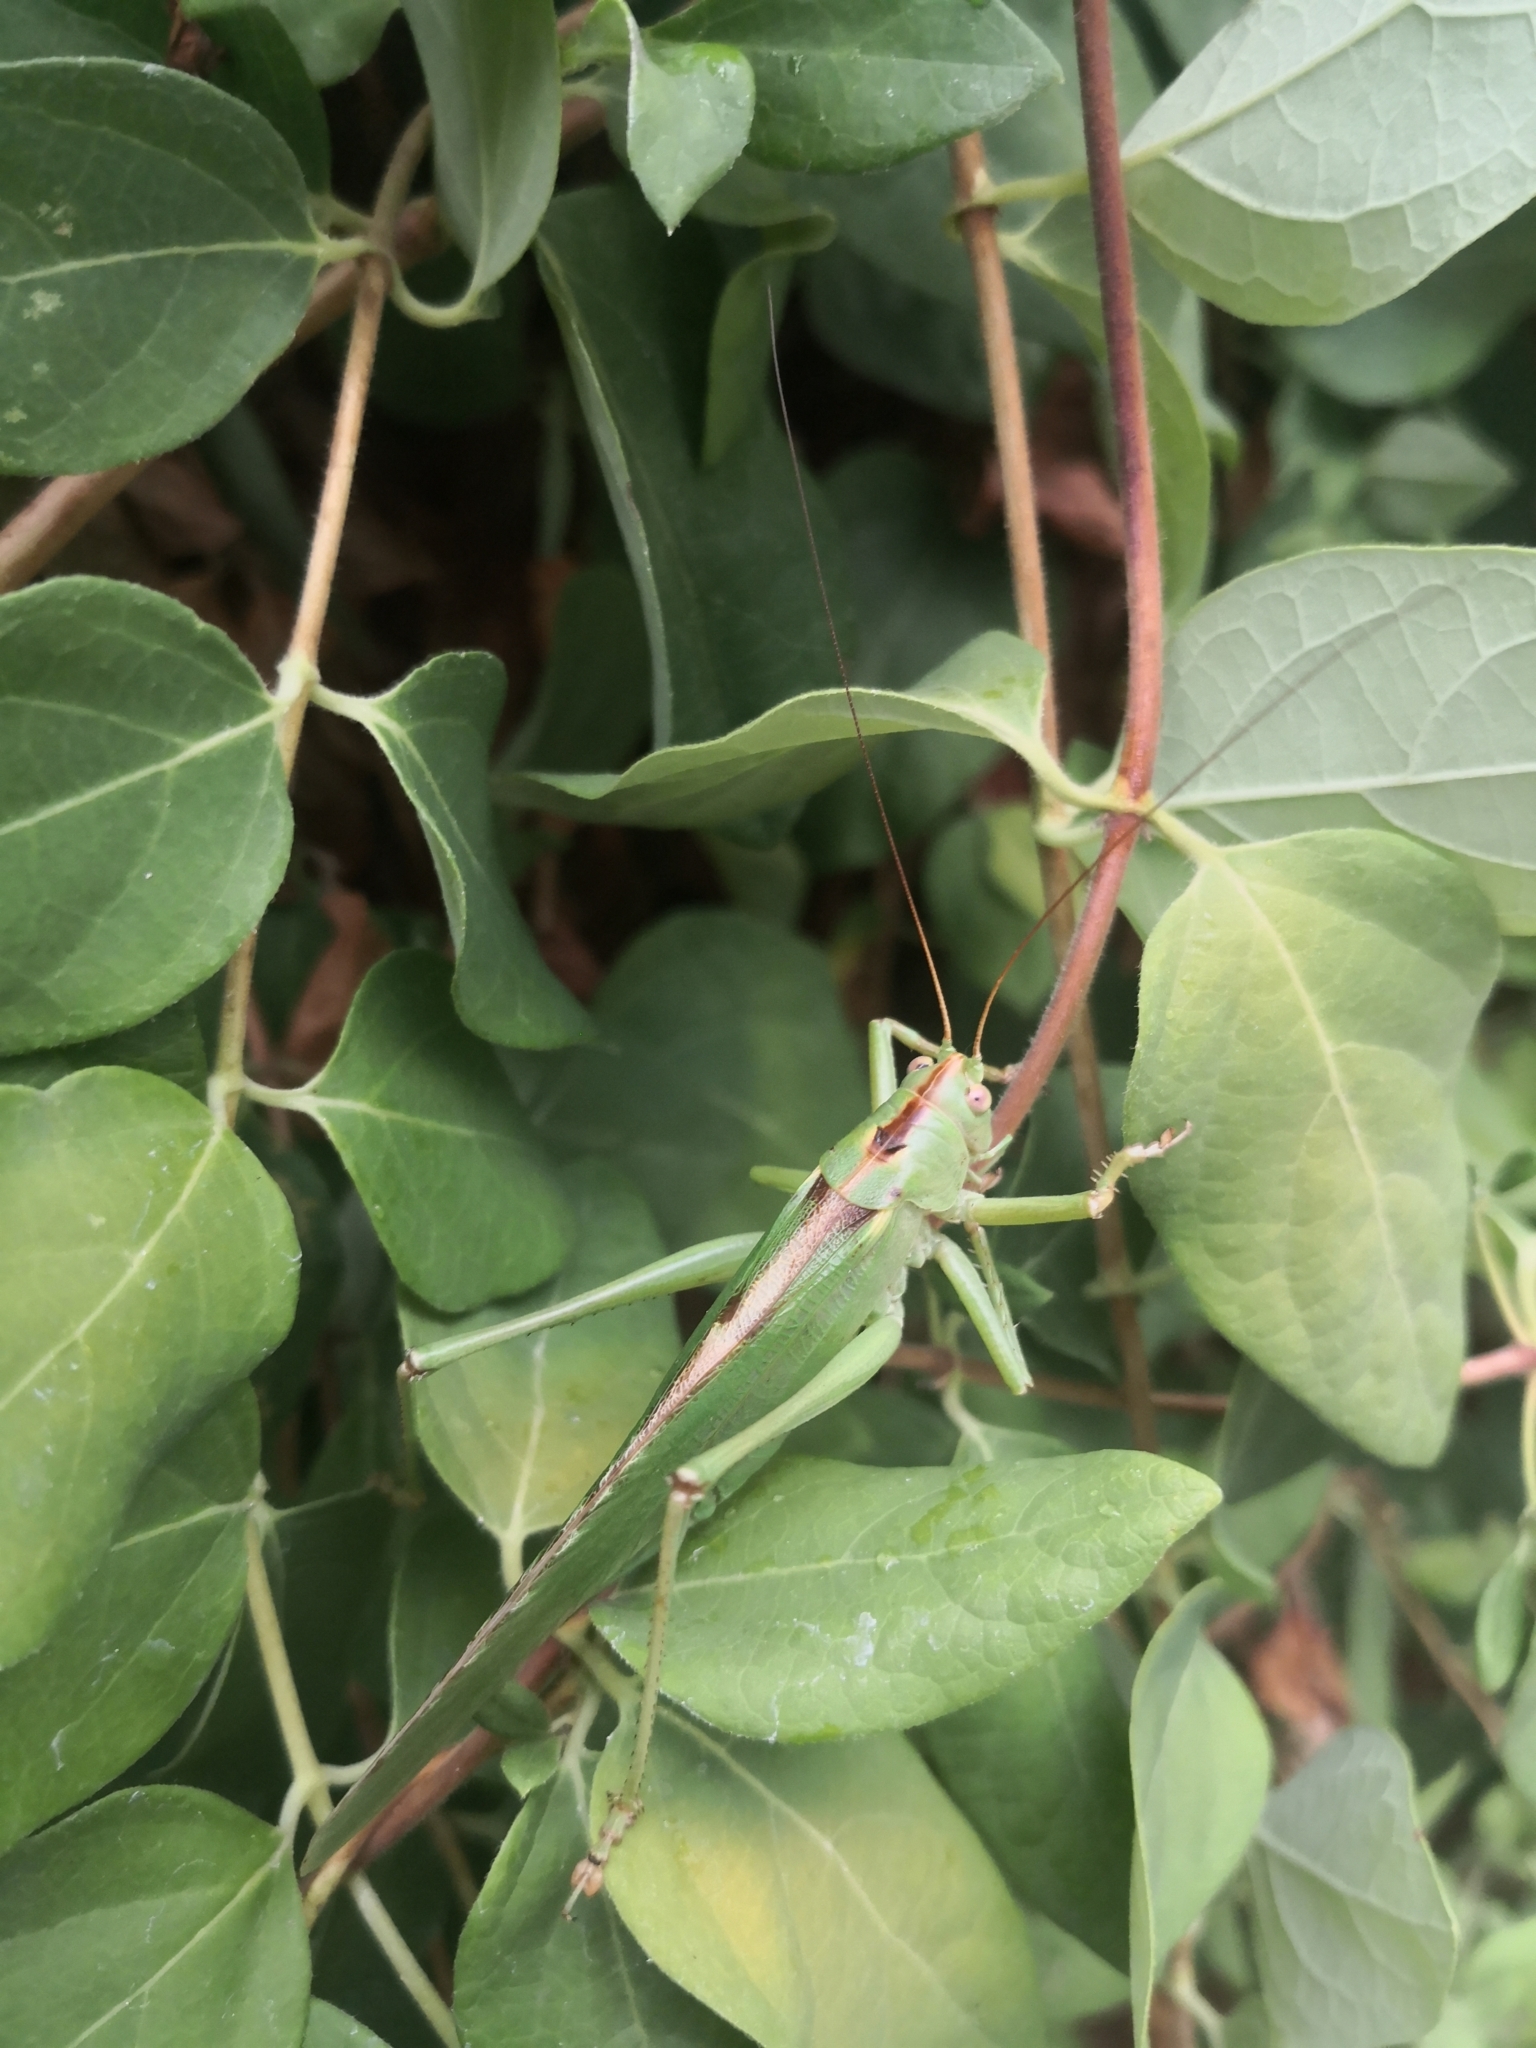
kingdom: Animalia
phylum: Arthropoda
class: Insecta
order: Orthoptera
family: Tettigoniidae
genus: Tettigonia
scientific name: Tettigonia viridissima
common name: Great green bush-cricket
